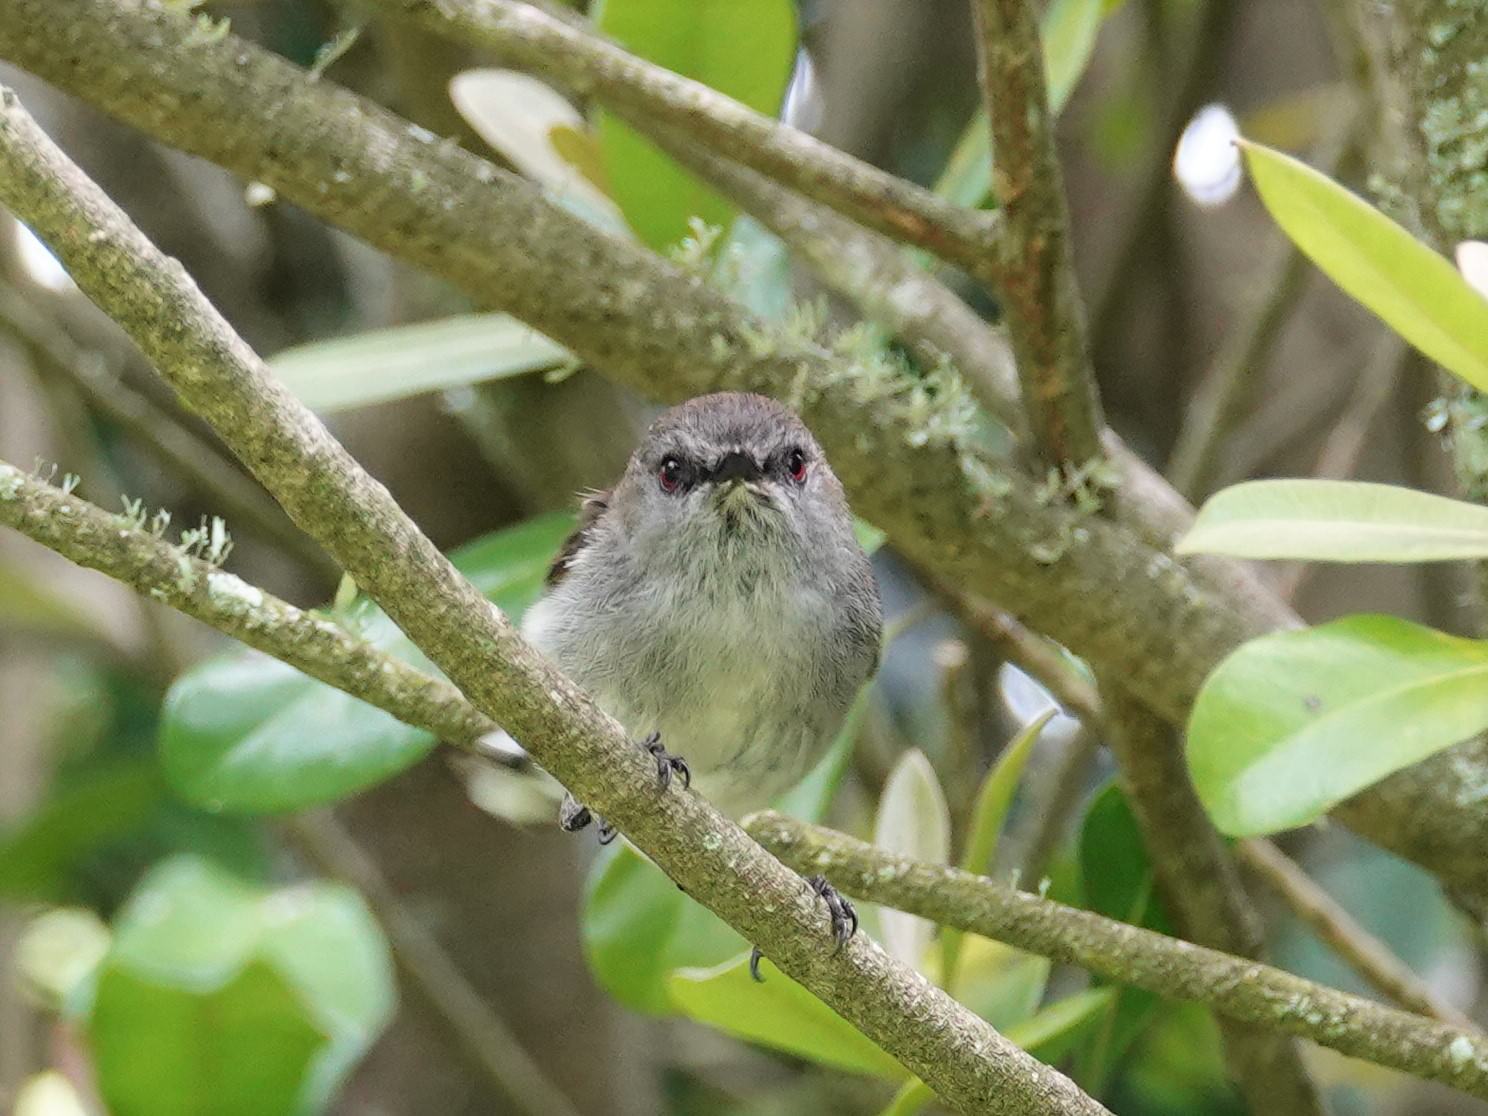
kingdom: Animalia
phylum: Chordata
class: Aves
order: Passeriformes
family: Acanthizidae
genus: Gerygone
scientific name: Gerygone igata
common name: Grey gerygone
